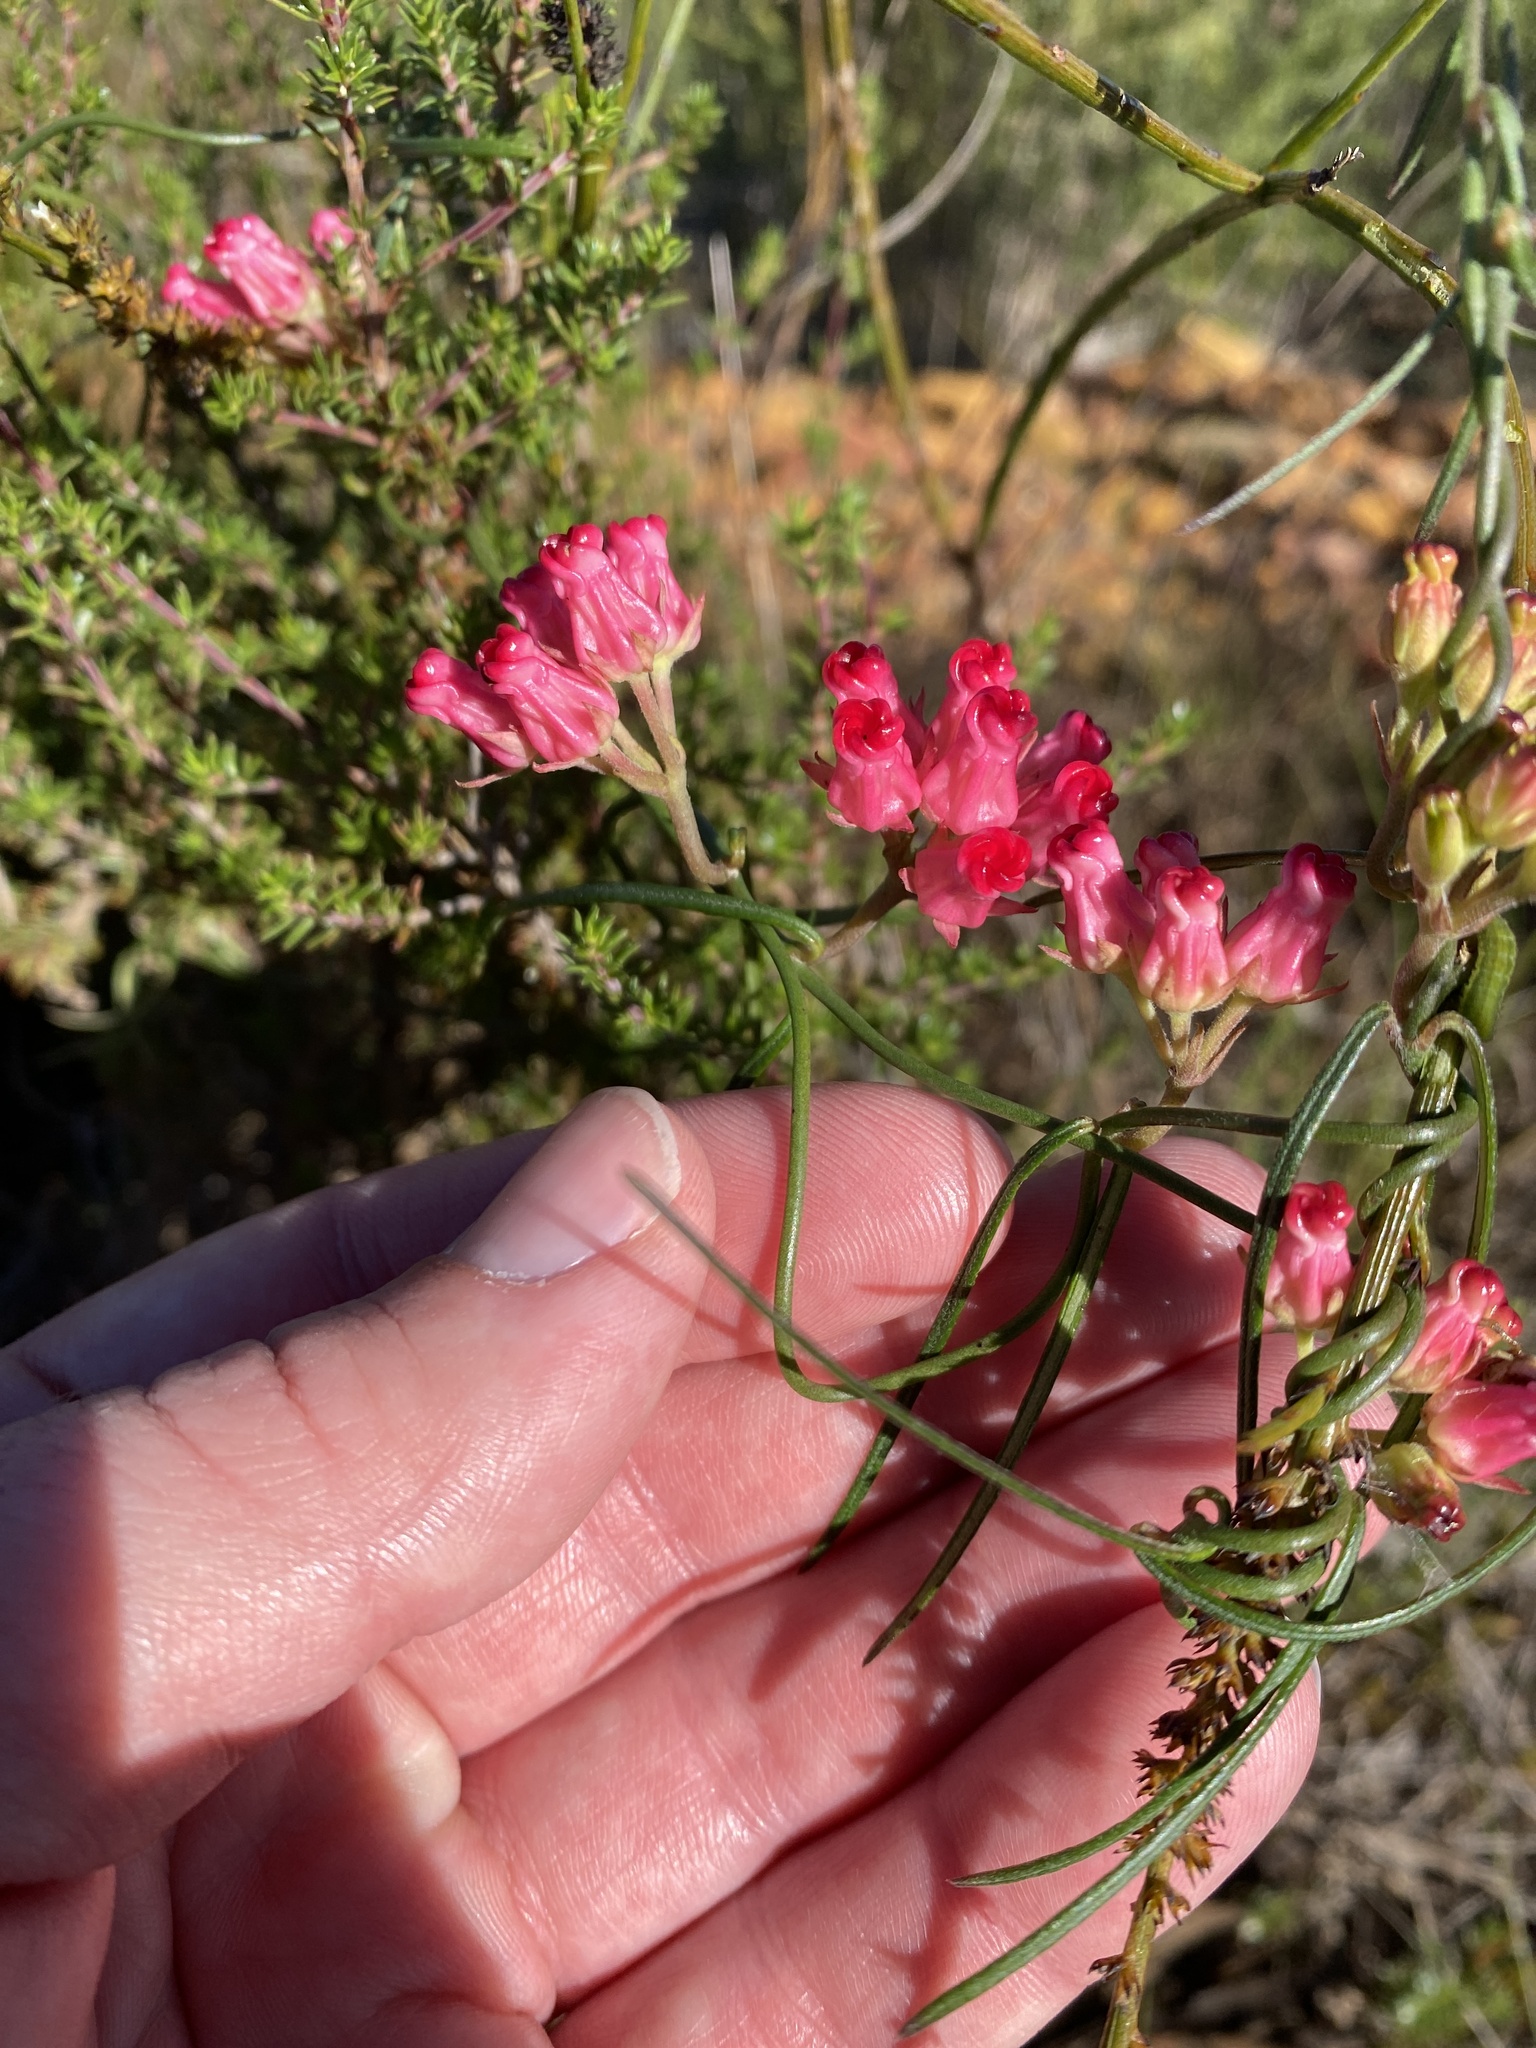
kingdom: Plantae
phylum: Tracheophyta
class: Magnoliopsida
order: Gentianales
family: Apocynaceae
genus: Microloma
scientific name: Microloma tenuifolium
